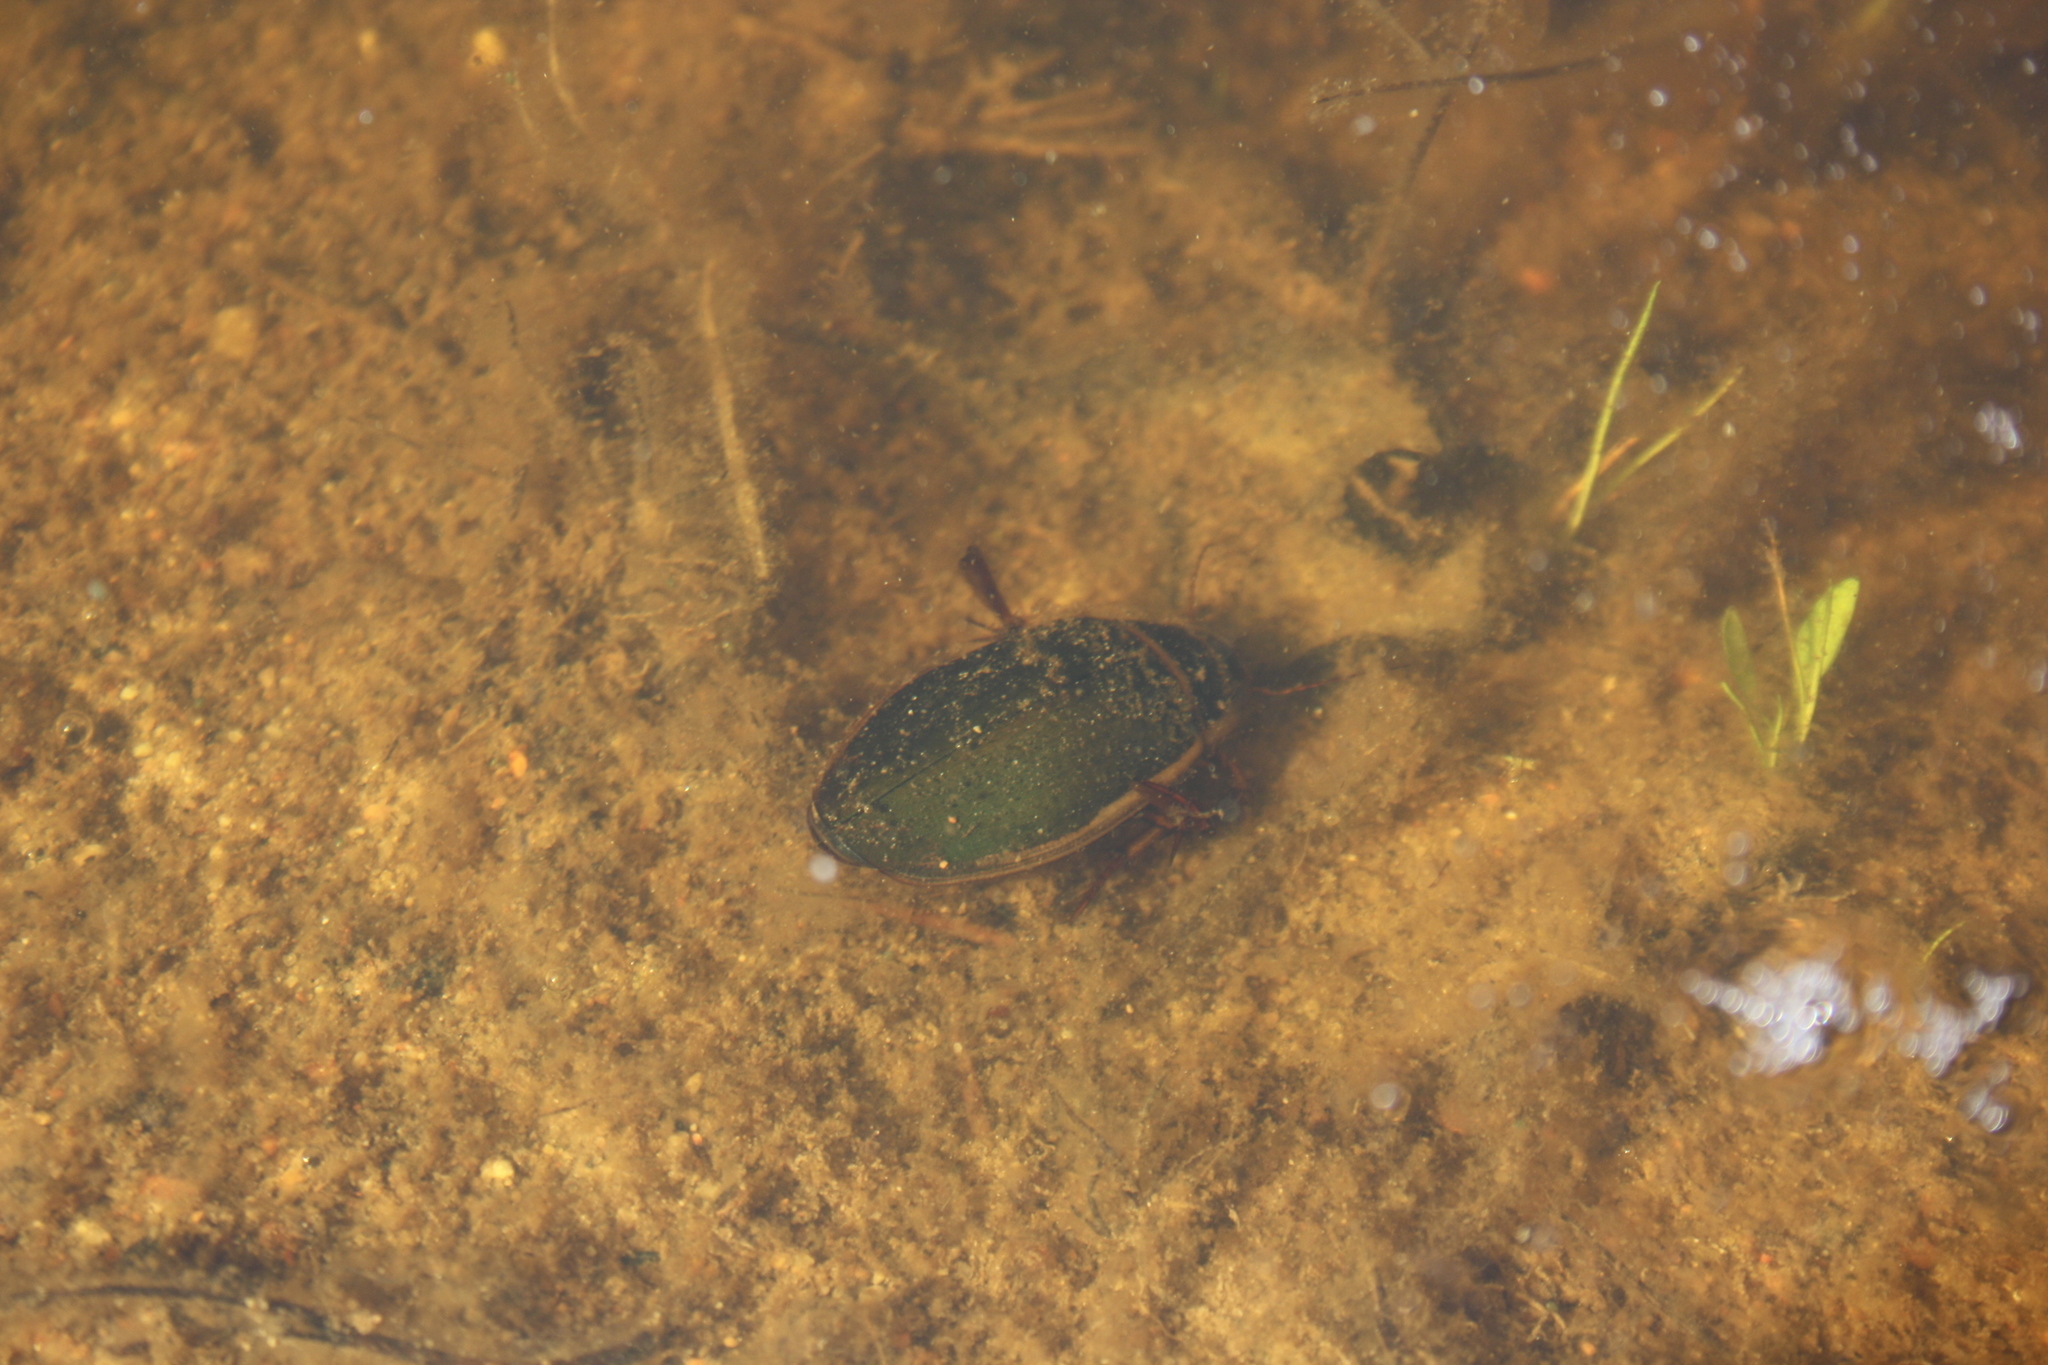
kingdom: Animalia
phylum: Arthropoda
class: Insecta
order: Coleoptera
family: Dytiscidae
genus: Dytiscus
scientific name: Dytiscus marginalis
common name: Great water beetle
